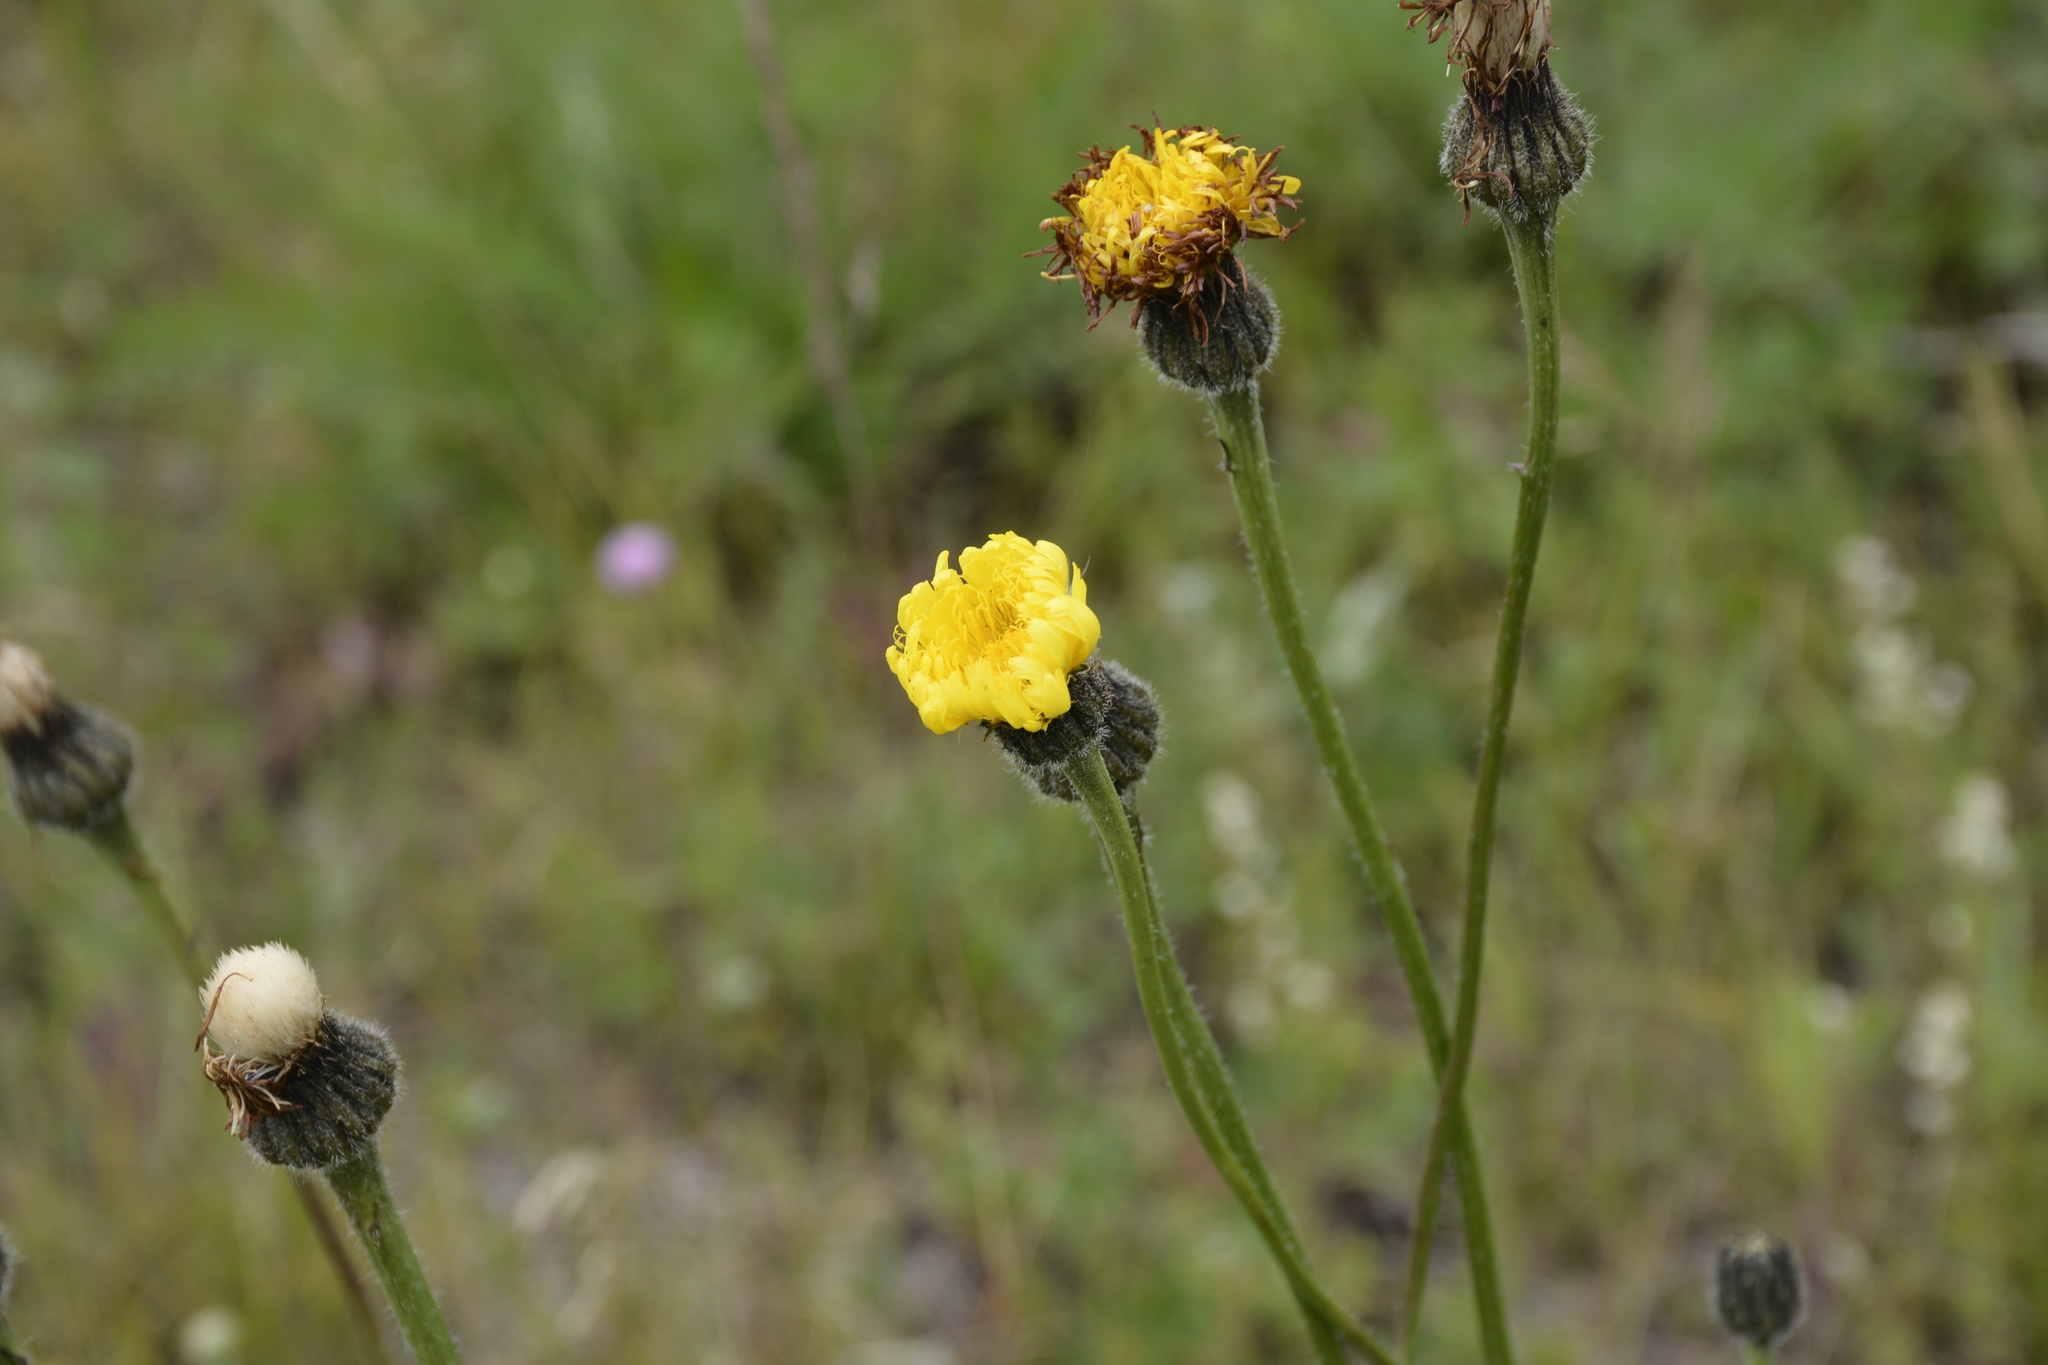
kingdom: Plantae
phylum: Tracheophyta
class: Magnoliopsida
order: Asterales
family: Asteraceae
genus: Trommsdorffia
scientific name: Trommsdorffia maculata
